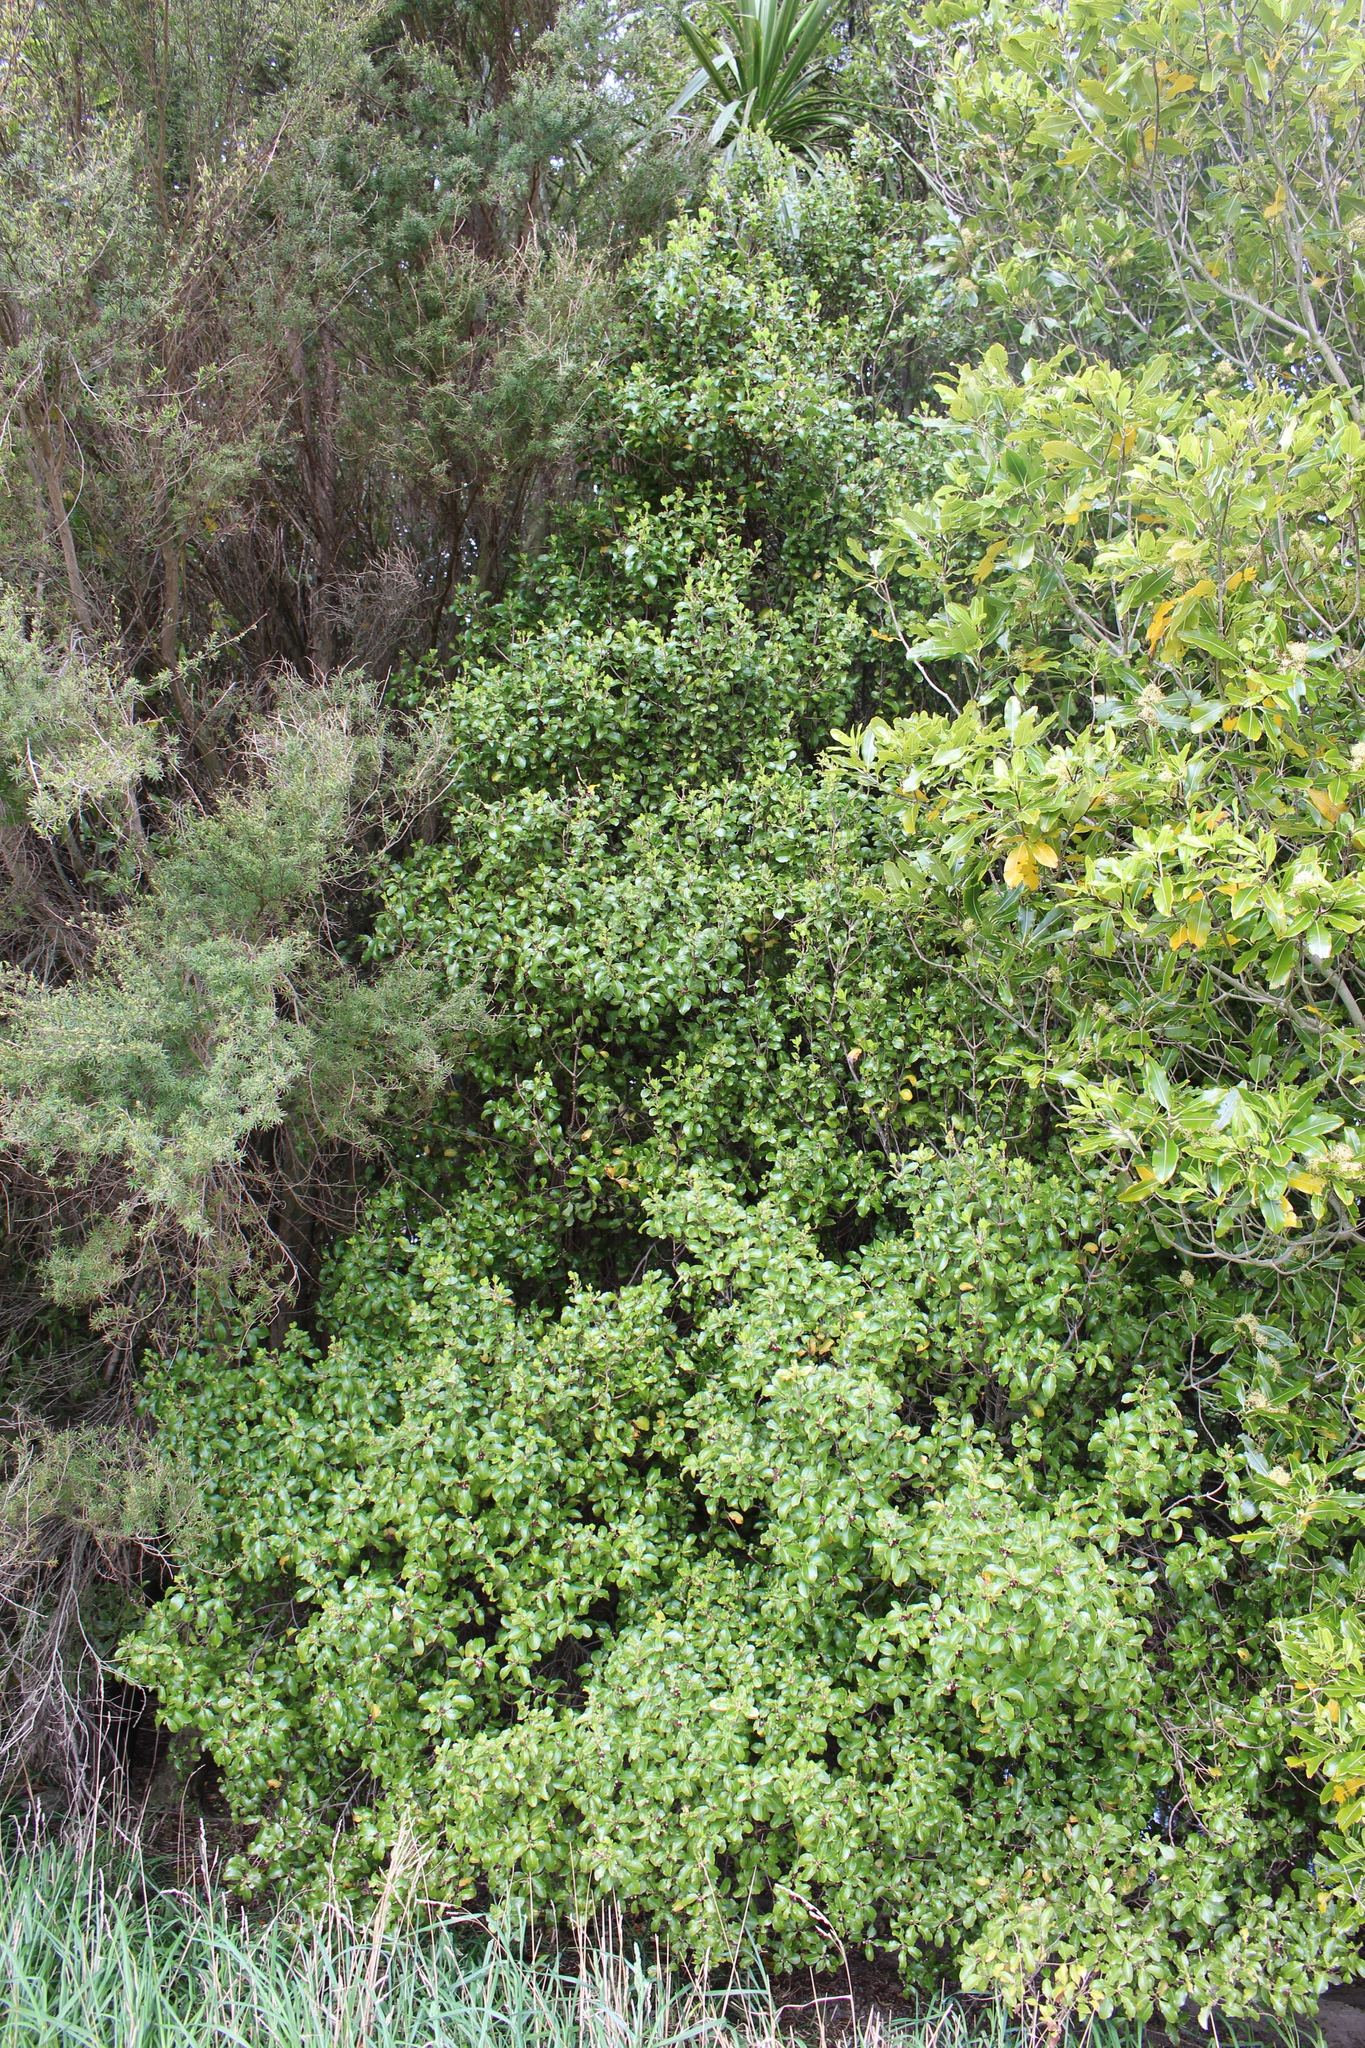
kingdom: Plantae
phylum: Tracheophyta
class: Magnoliopsida
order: Apiales
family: Pittosporaceae
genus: Pittosporum
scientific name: Pittosporum tenuifolium
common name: Kohuhu
